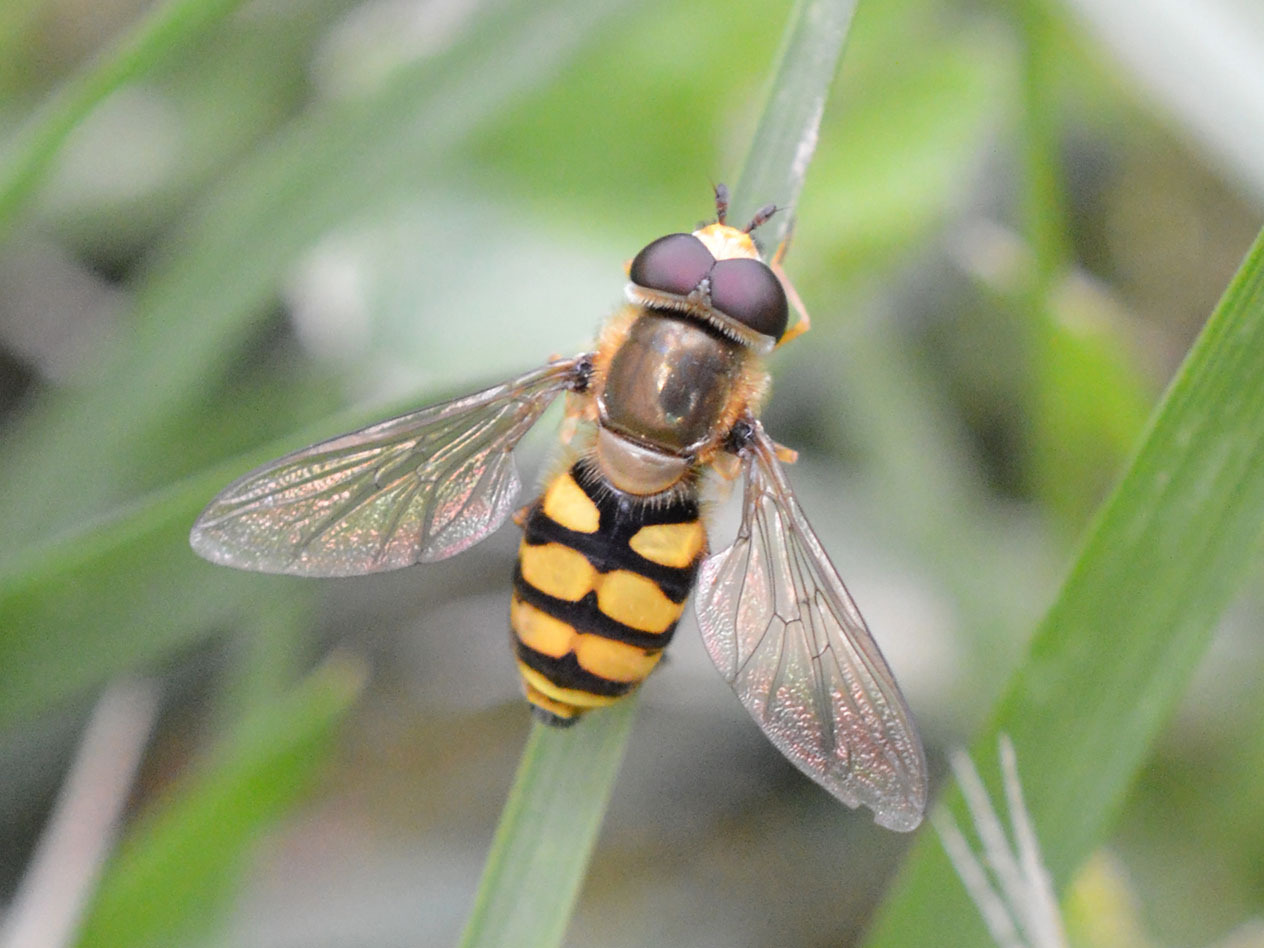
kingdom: Animalia
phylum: Arthropoda
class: Insecta
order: Diptera
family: Syrphidae
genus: Eupeodes
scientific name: Eupeodes corollae
